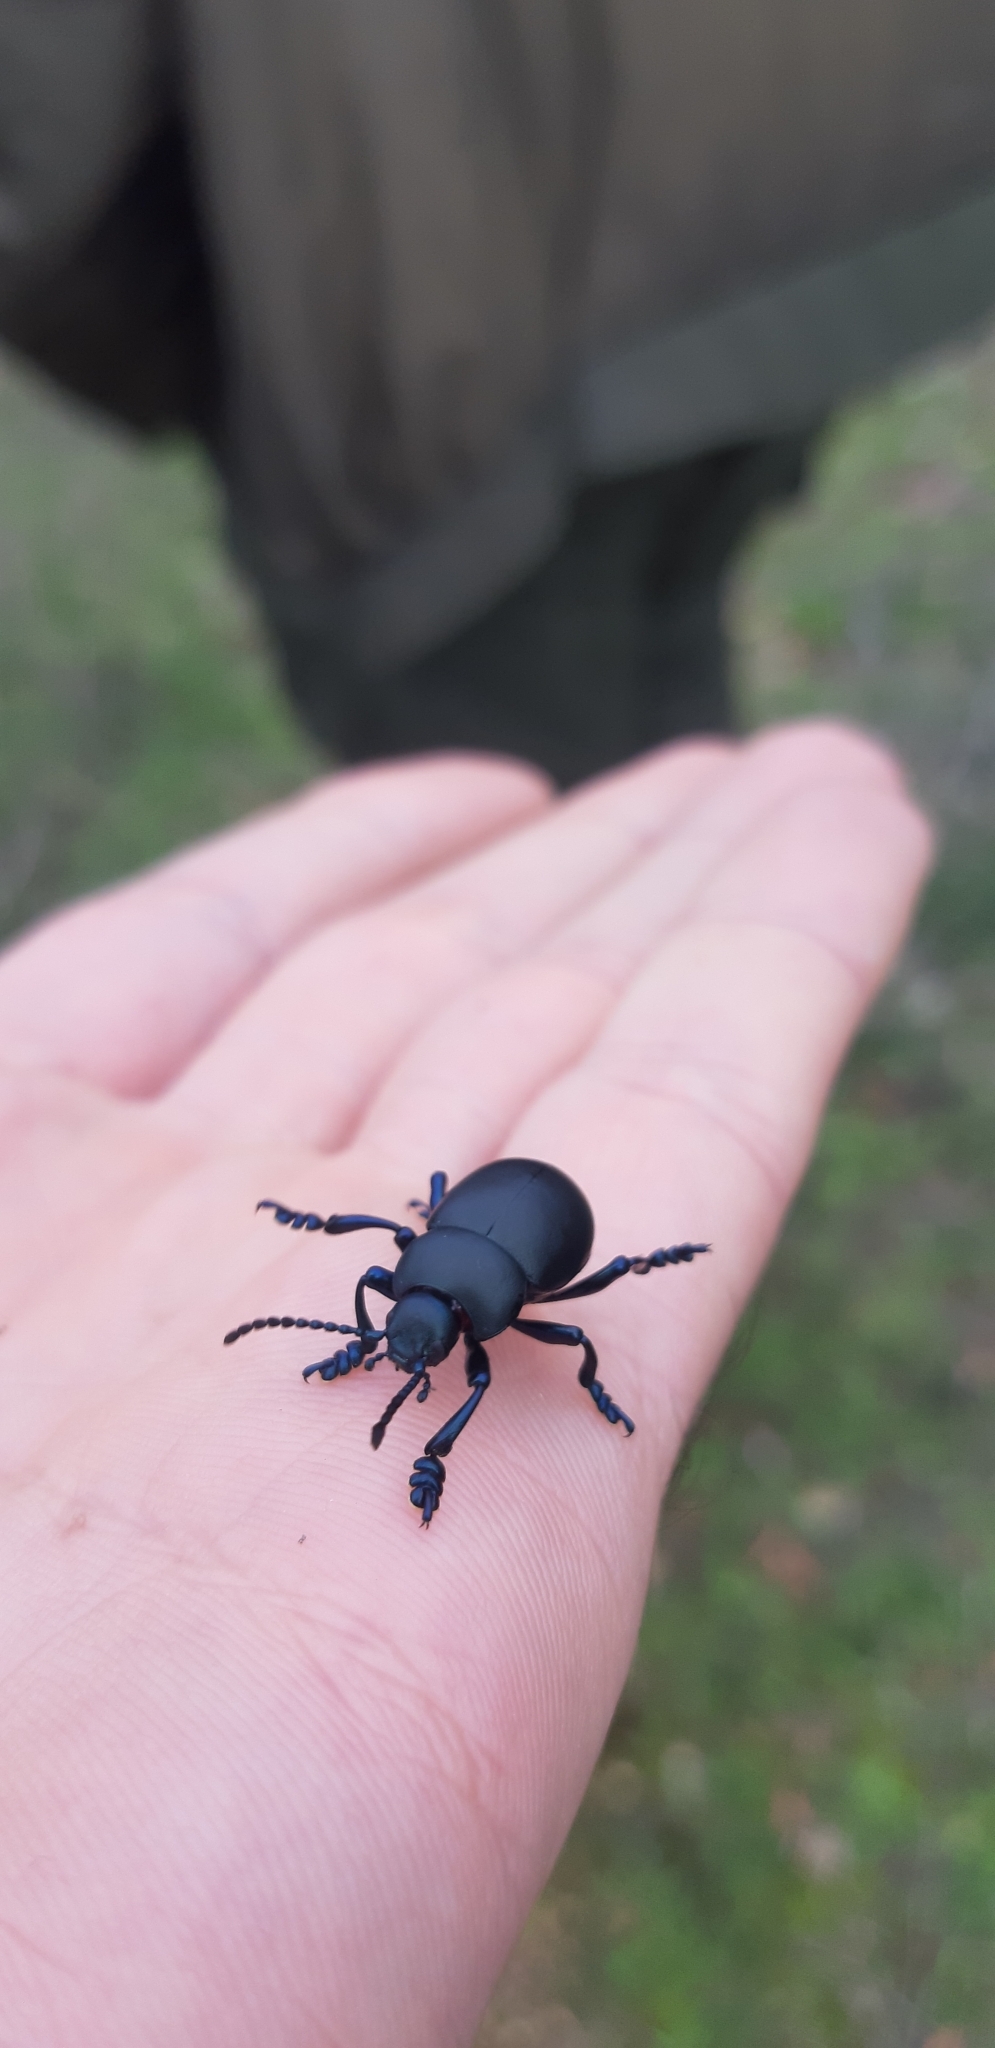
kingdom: Animalia
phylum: Arthropoda
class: Insecta
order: Coleoptera
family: Chrysomelidae
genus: Timarcha
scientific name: Timarcha nicaeensis
